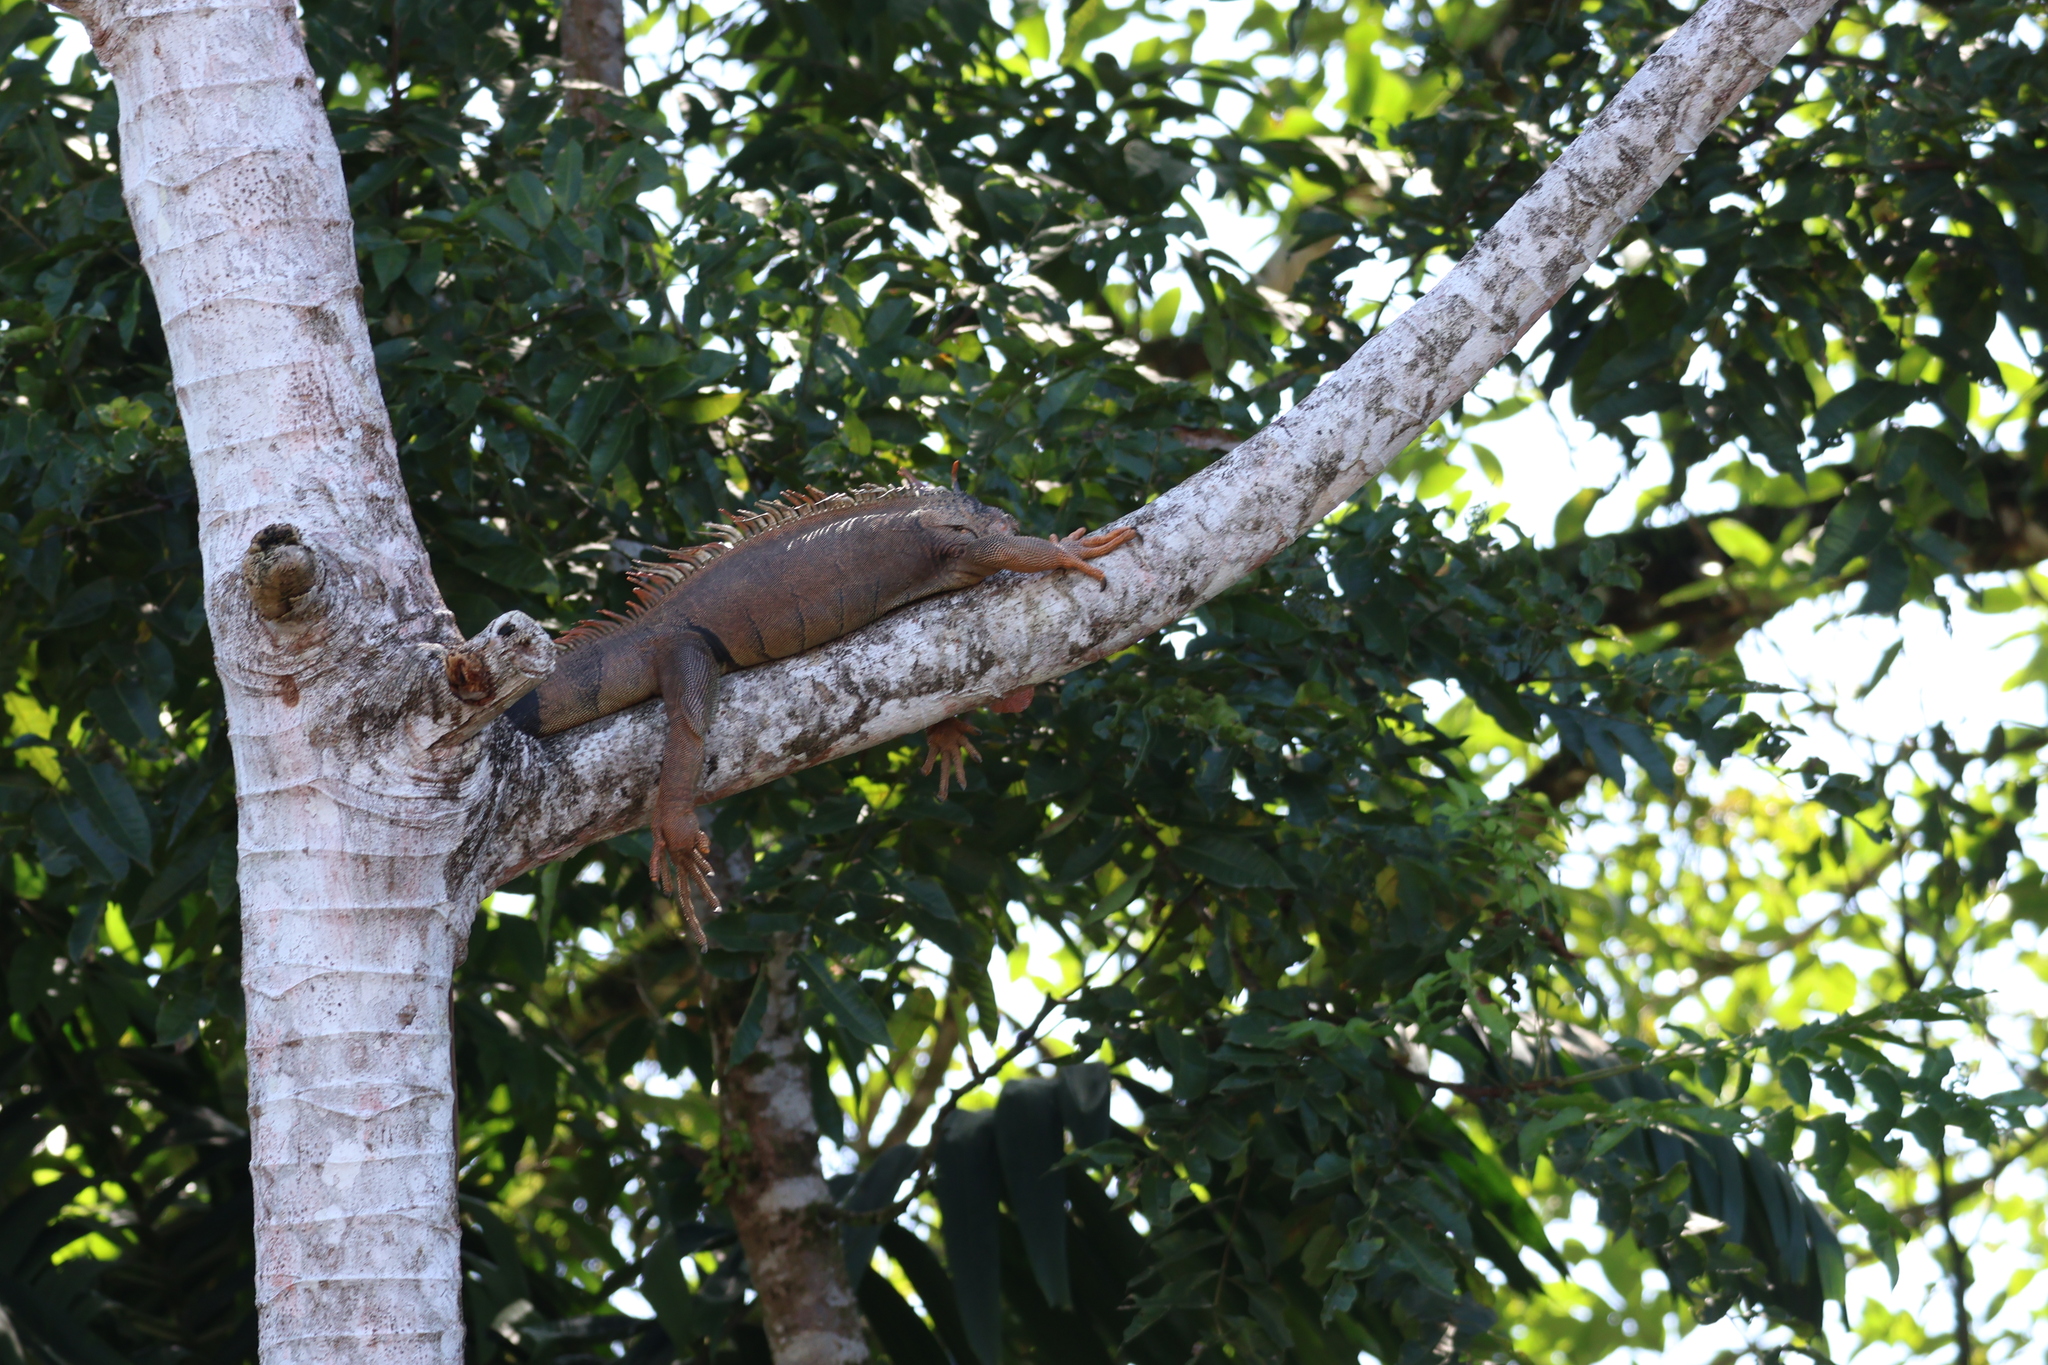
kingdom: Animalia
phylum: Chordata
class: Squamata
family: Iguanidae
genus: Iguana
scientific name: Iguana iguana
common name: Green iguana
